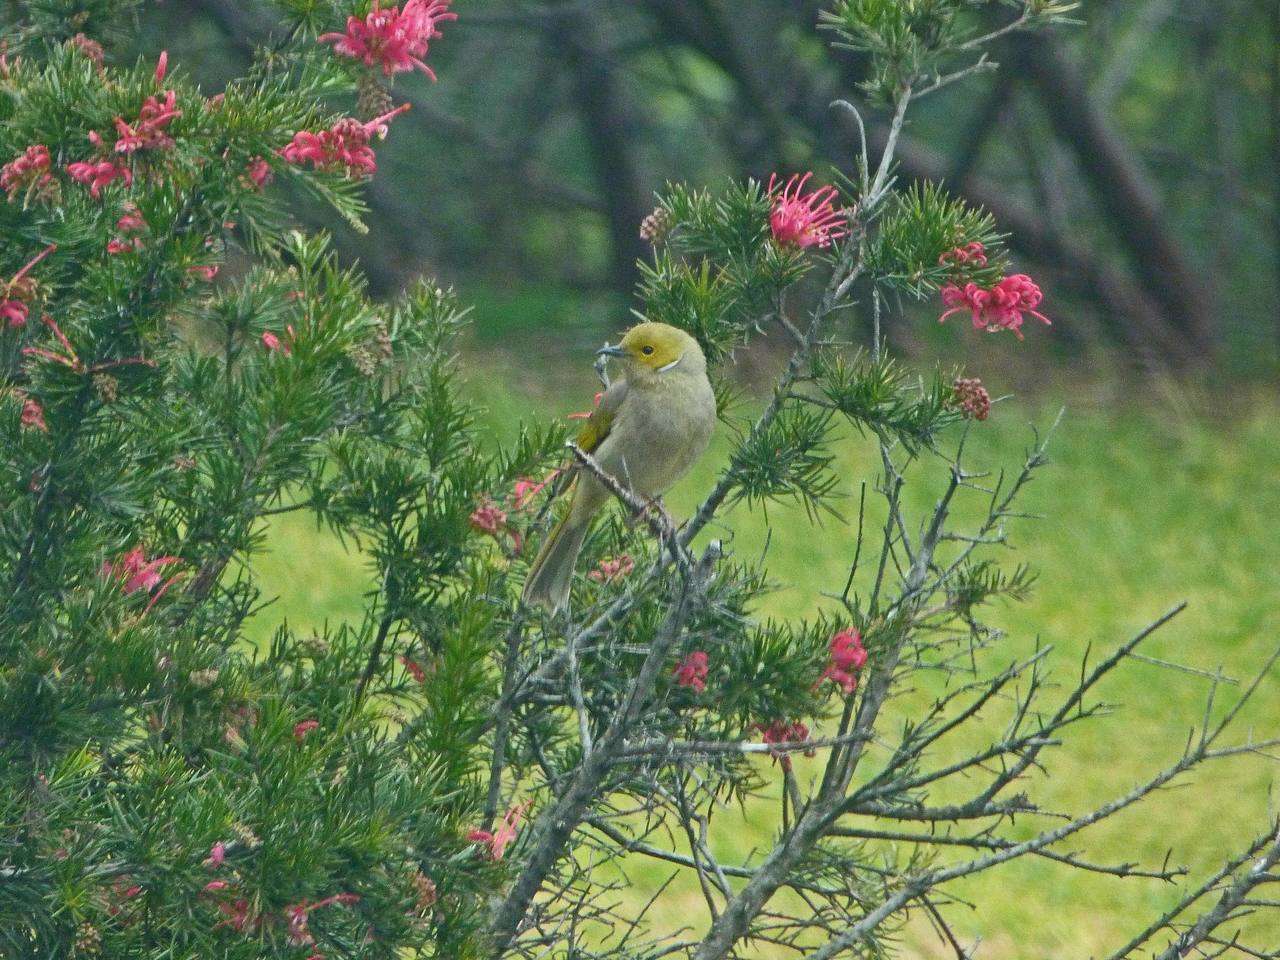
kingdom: Animalia
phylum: Chordata
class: Aves
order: Passeriformes
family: Meliphagidae
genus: Ptilotula
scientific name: Ptilotula penicillata
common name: White-plumed honeyeater
